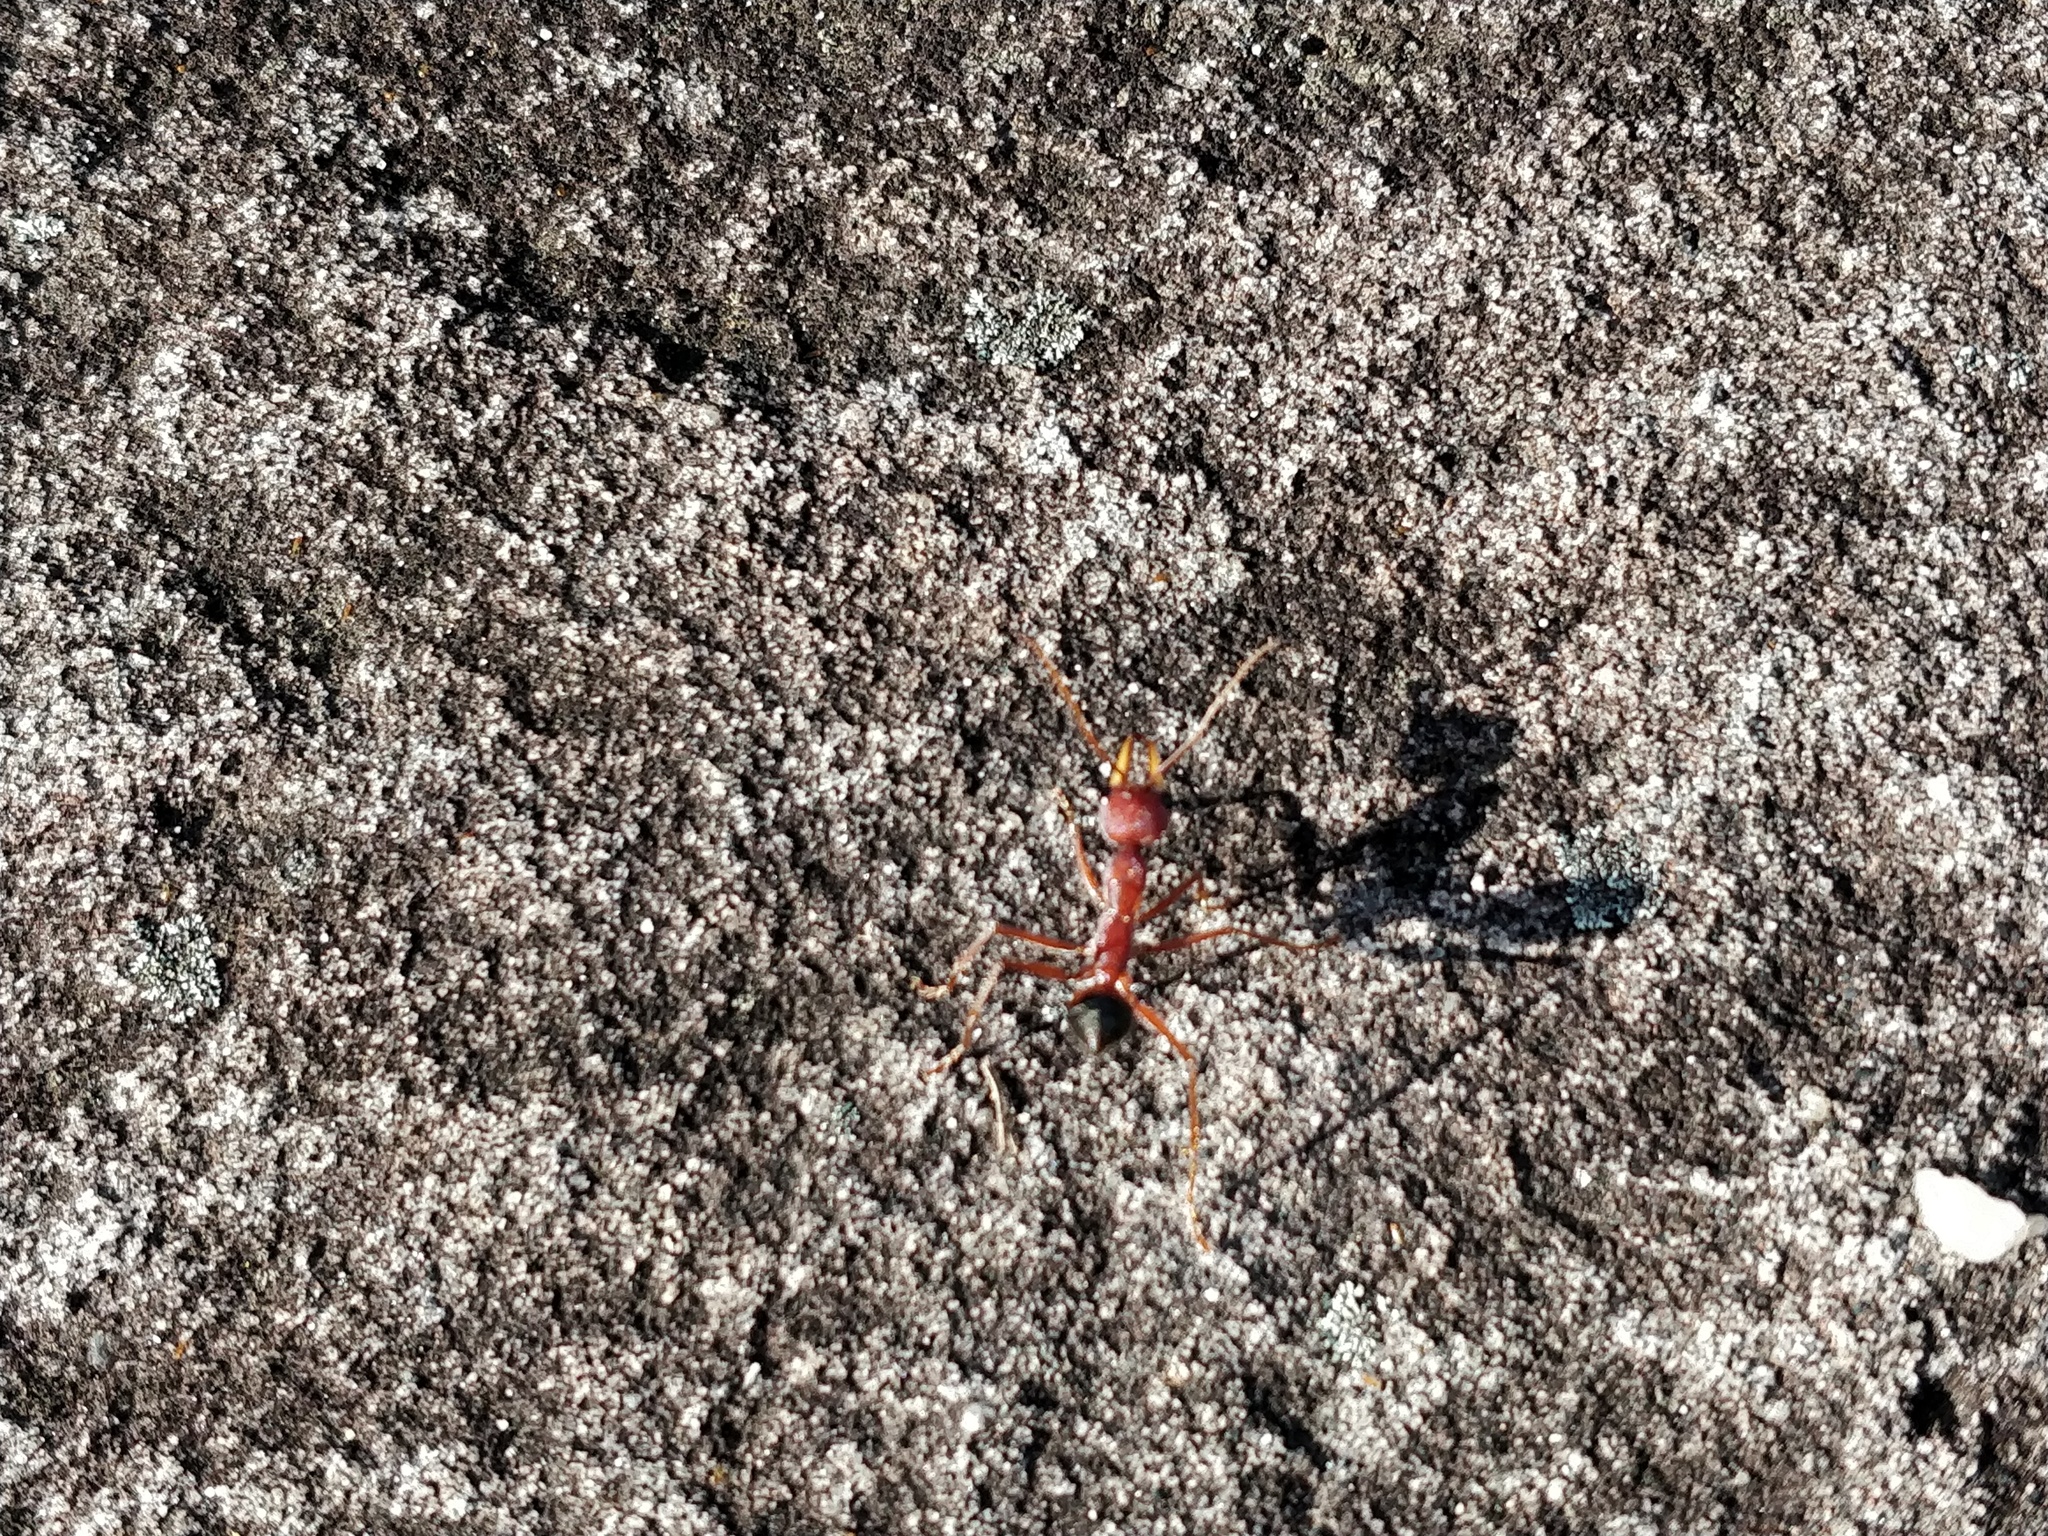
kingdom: Animalia
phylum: Arthropoda
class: Insecta
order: Hymenoptera
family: Formicidae
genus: Myrmecia
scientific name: Myrmecia gulosa
